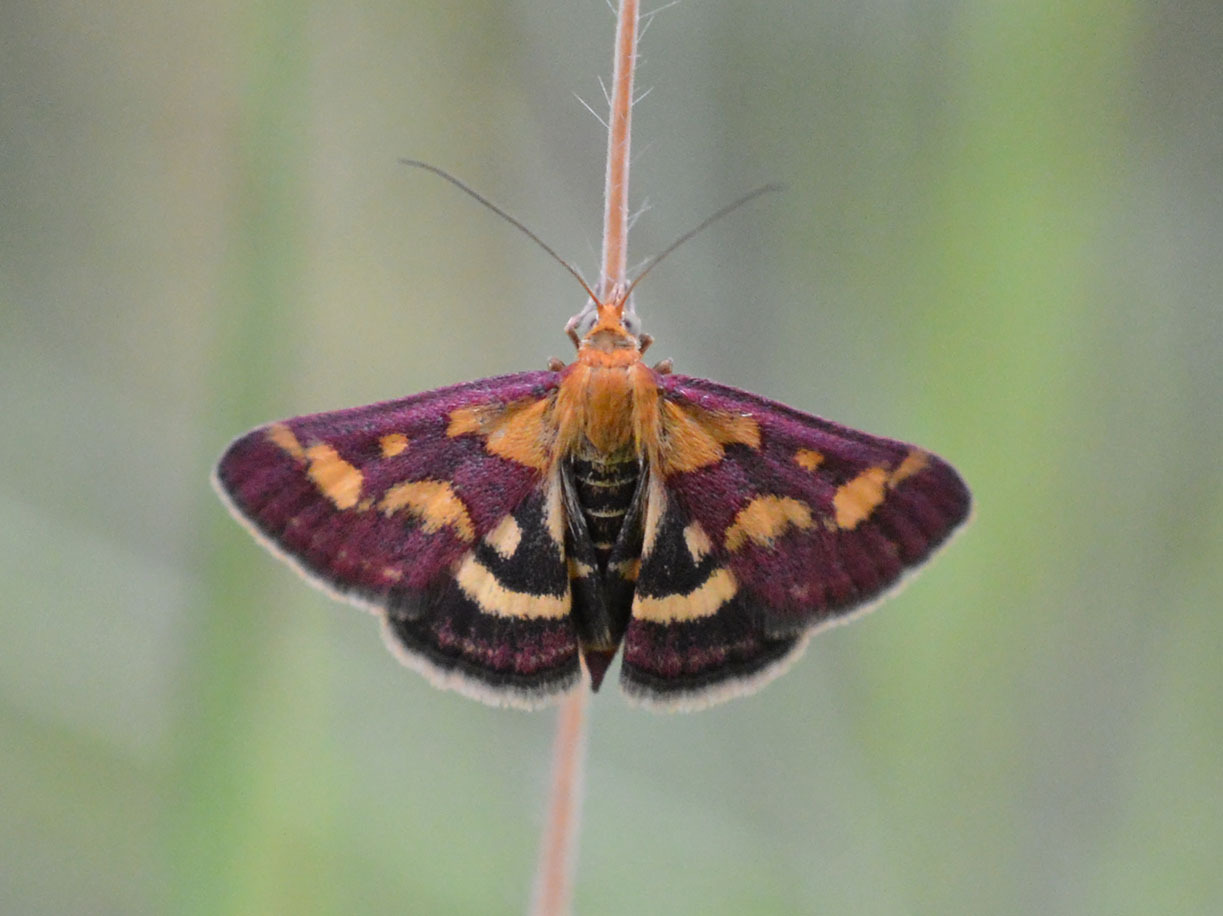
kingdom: Animalia
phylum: Arthropoda
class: Insecta
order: Lepidoptera
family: Crambidae
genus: Pyrausta
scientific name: Pyrausta purpuralis
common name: Common purple & gold
